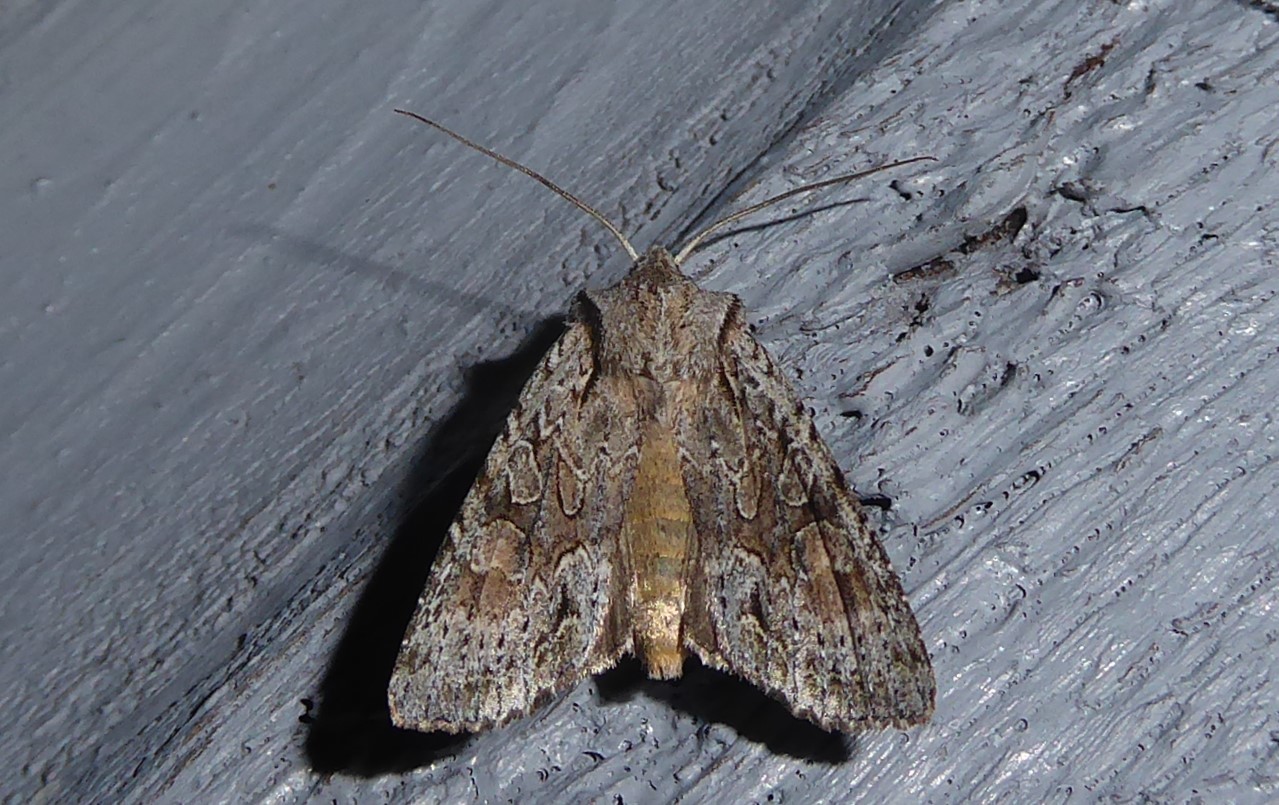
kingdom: Animalia
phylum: Arthropoda
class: Insecta
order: Lepidoptera
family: Noctuidae
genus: Ichneutica
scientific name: Ichneutica mutans
